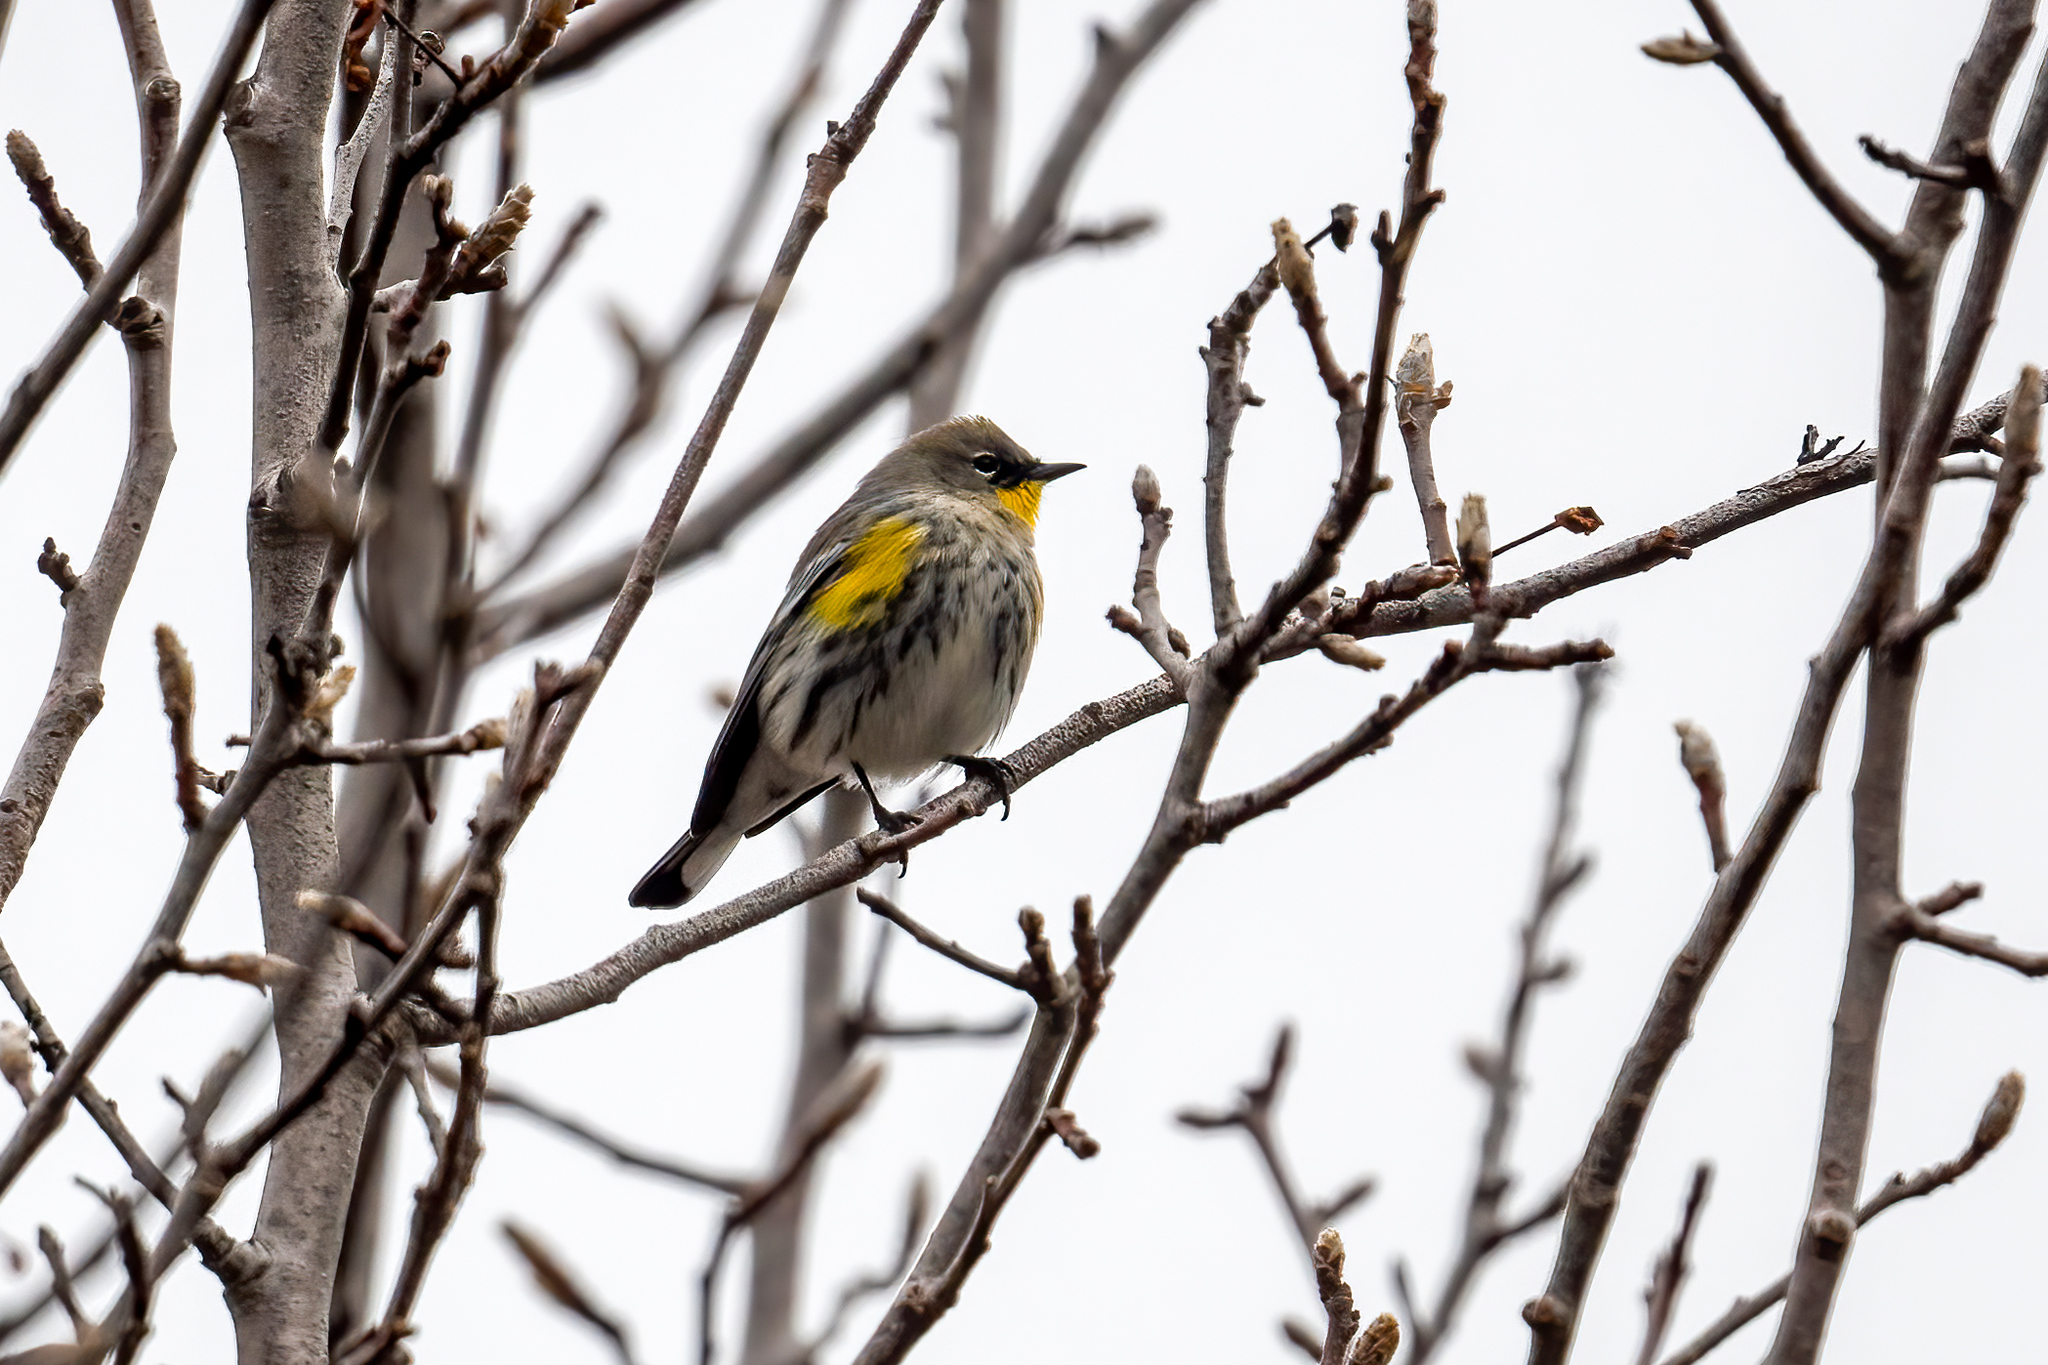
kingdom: Animalia
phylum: Chordata
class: Aves
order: Passeriformes
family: Parulidae
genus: Setophaga
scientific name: Setophaga coronata
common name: Myrtle warbler
